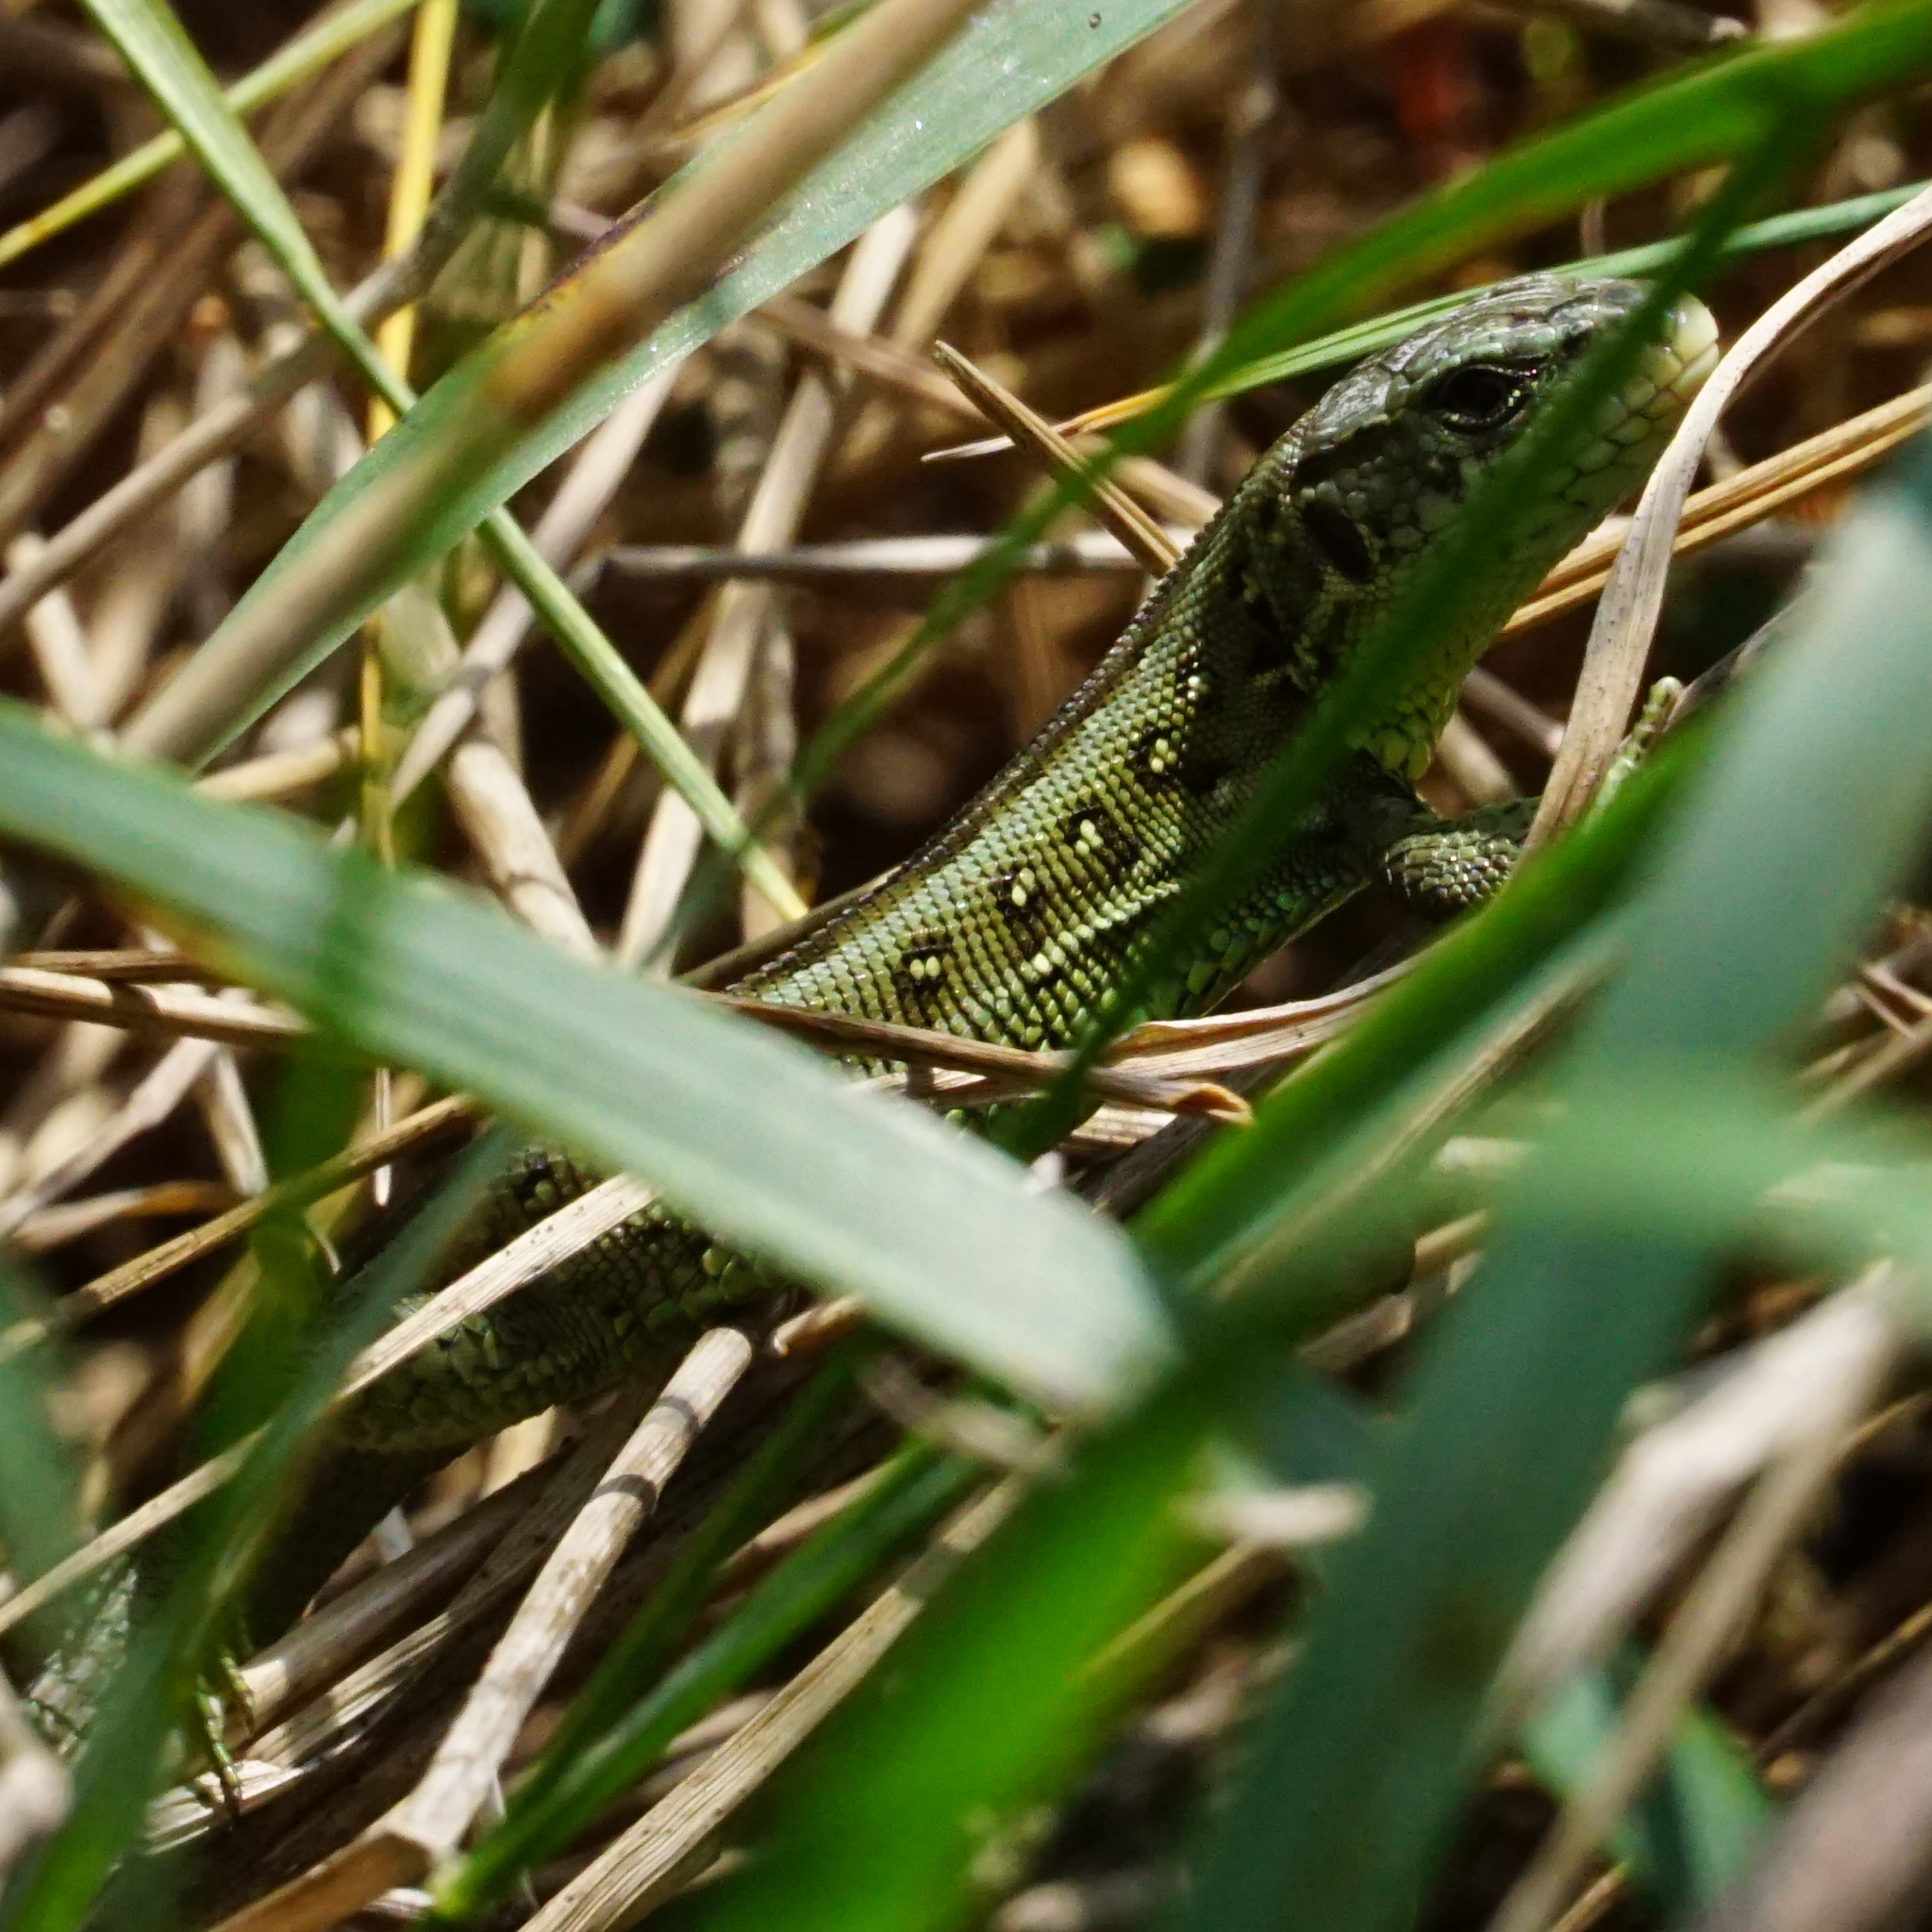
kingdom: Animalia
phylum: Chordata
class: Squamata
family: Lacertidae
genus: Lacerta
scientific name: Lacerta agilis
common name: Sand lizard
